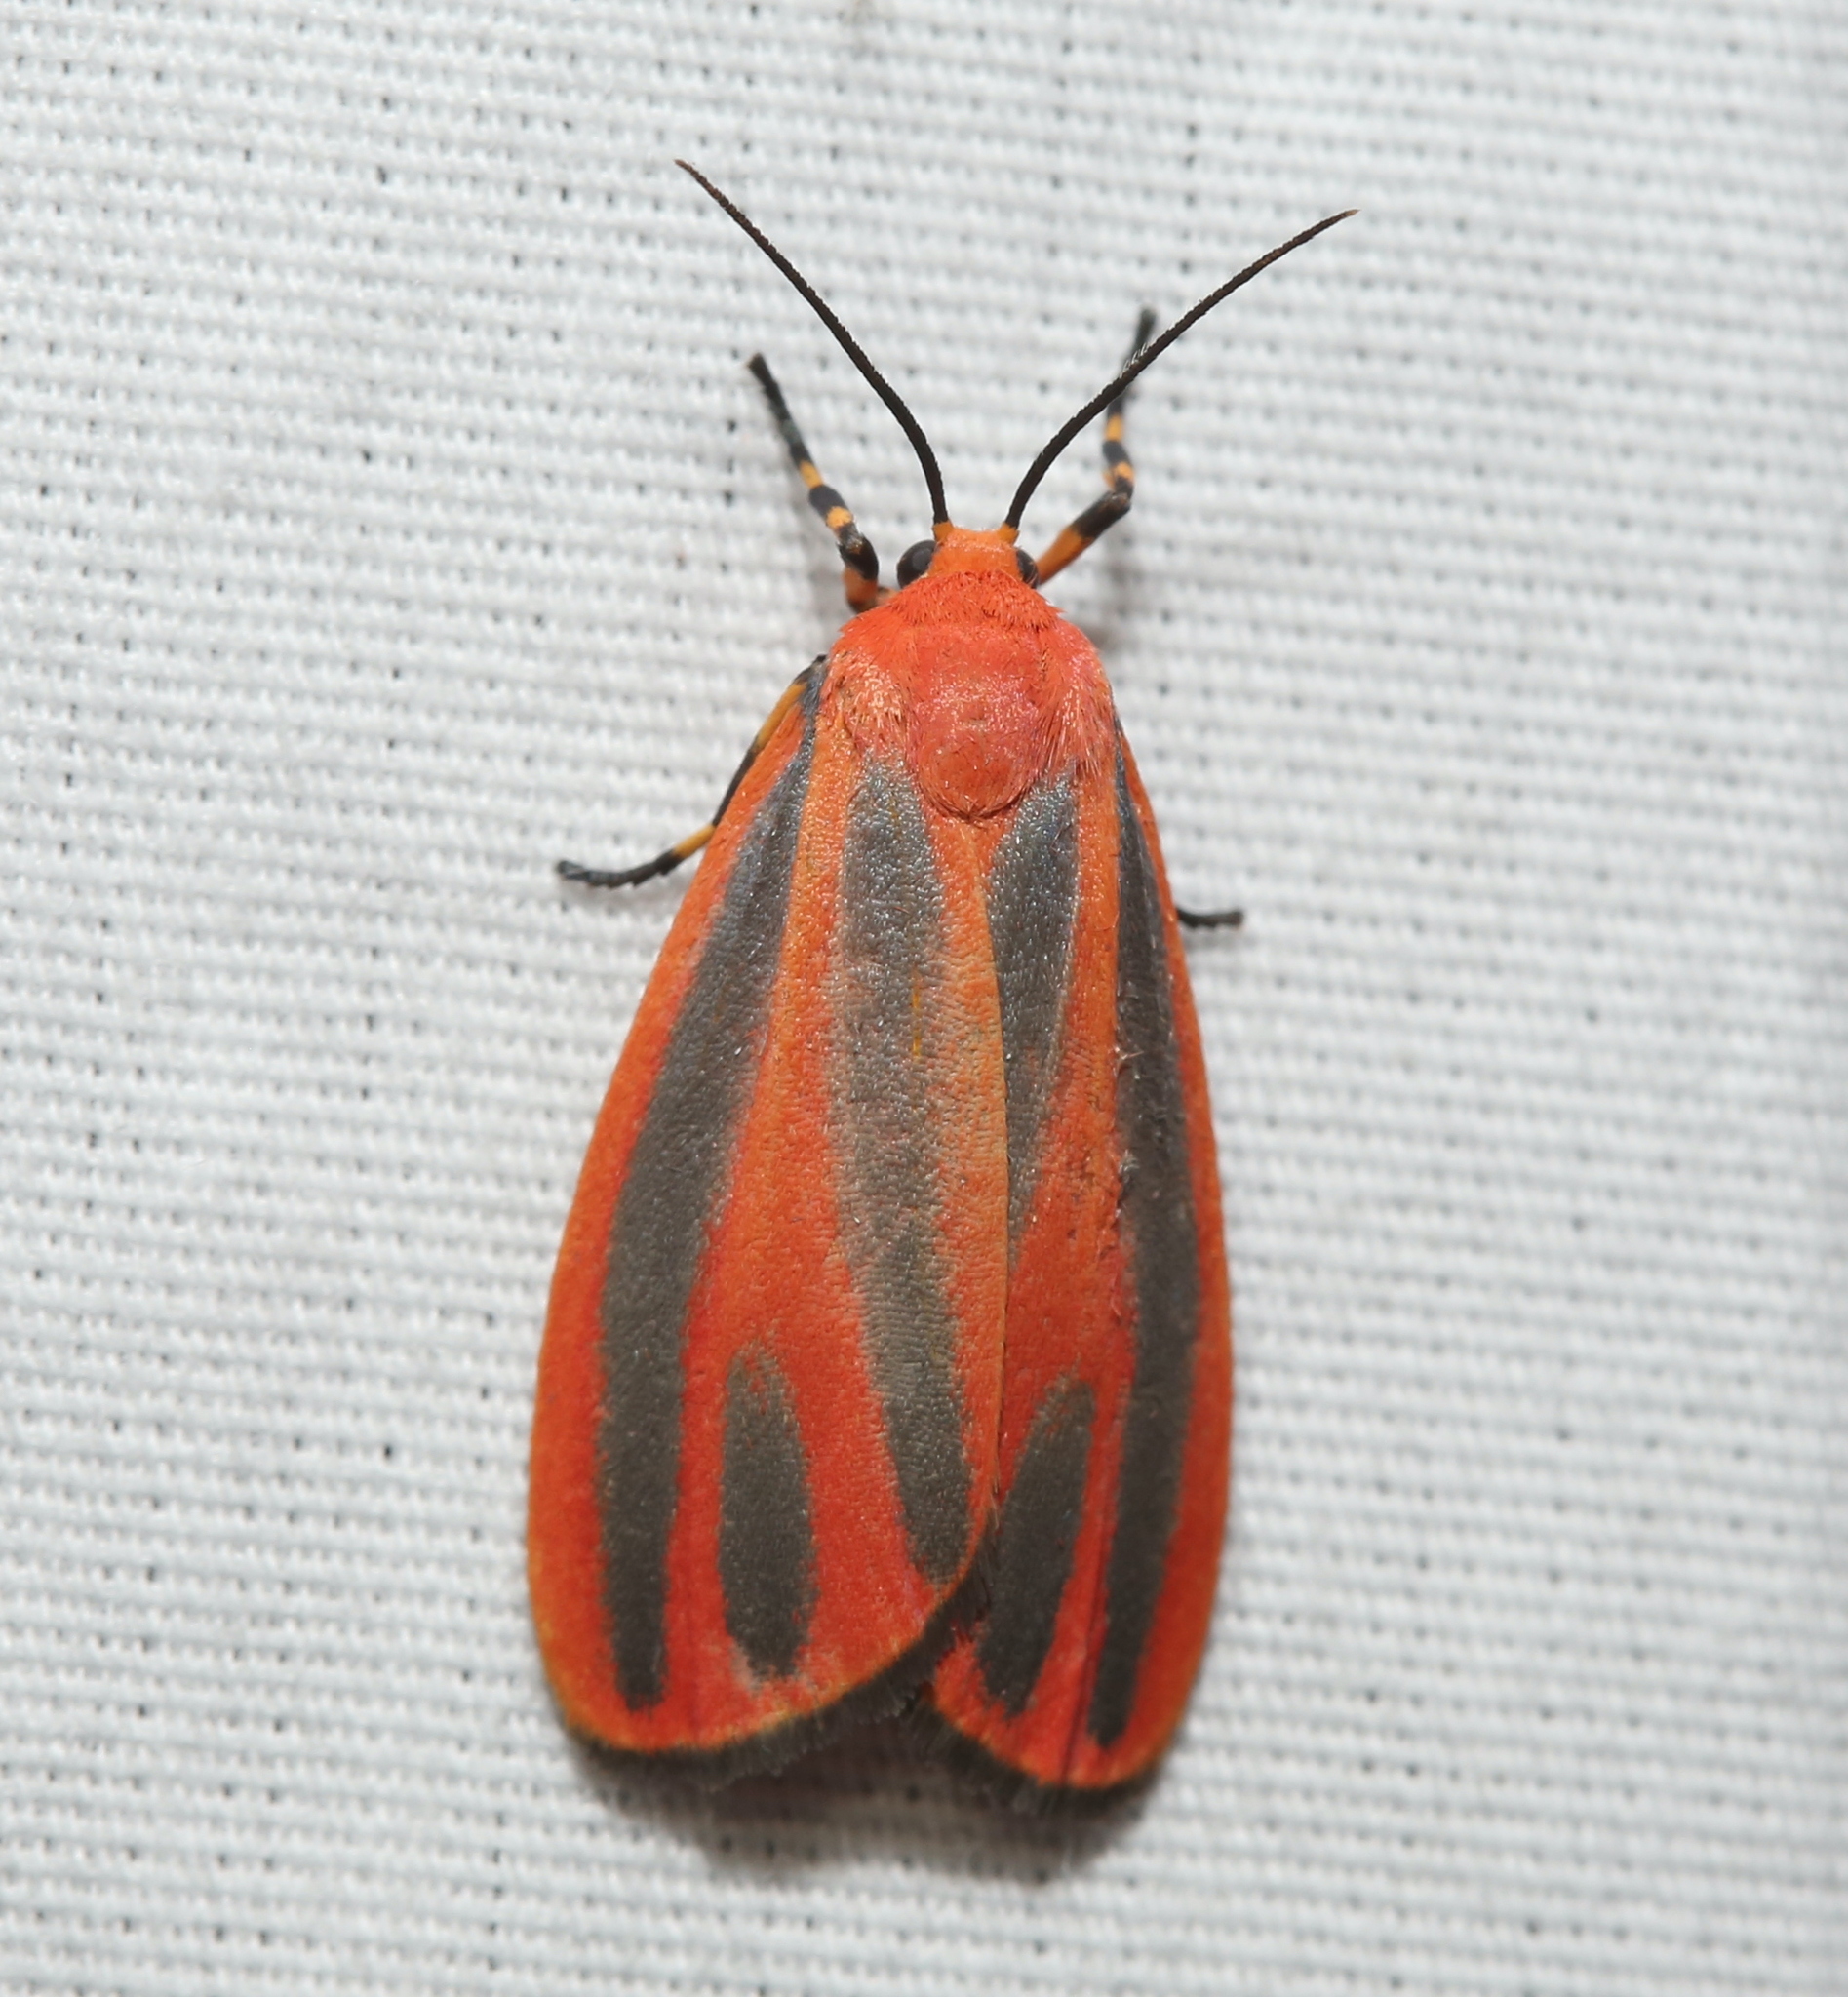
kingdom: Animalia
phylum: Arthropoda
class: Insecta
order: Lepidoptera
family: Erebidae
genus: Hypoprepia
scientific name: Hypoprepia miniata
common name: Scarlet-winged lichen moth
